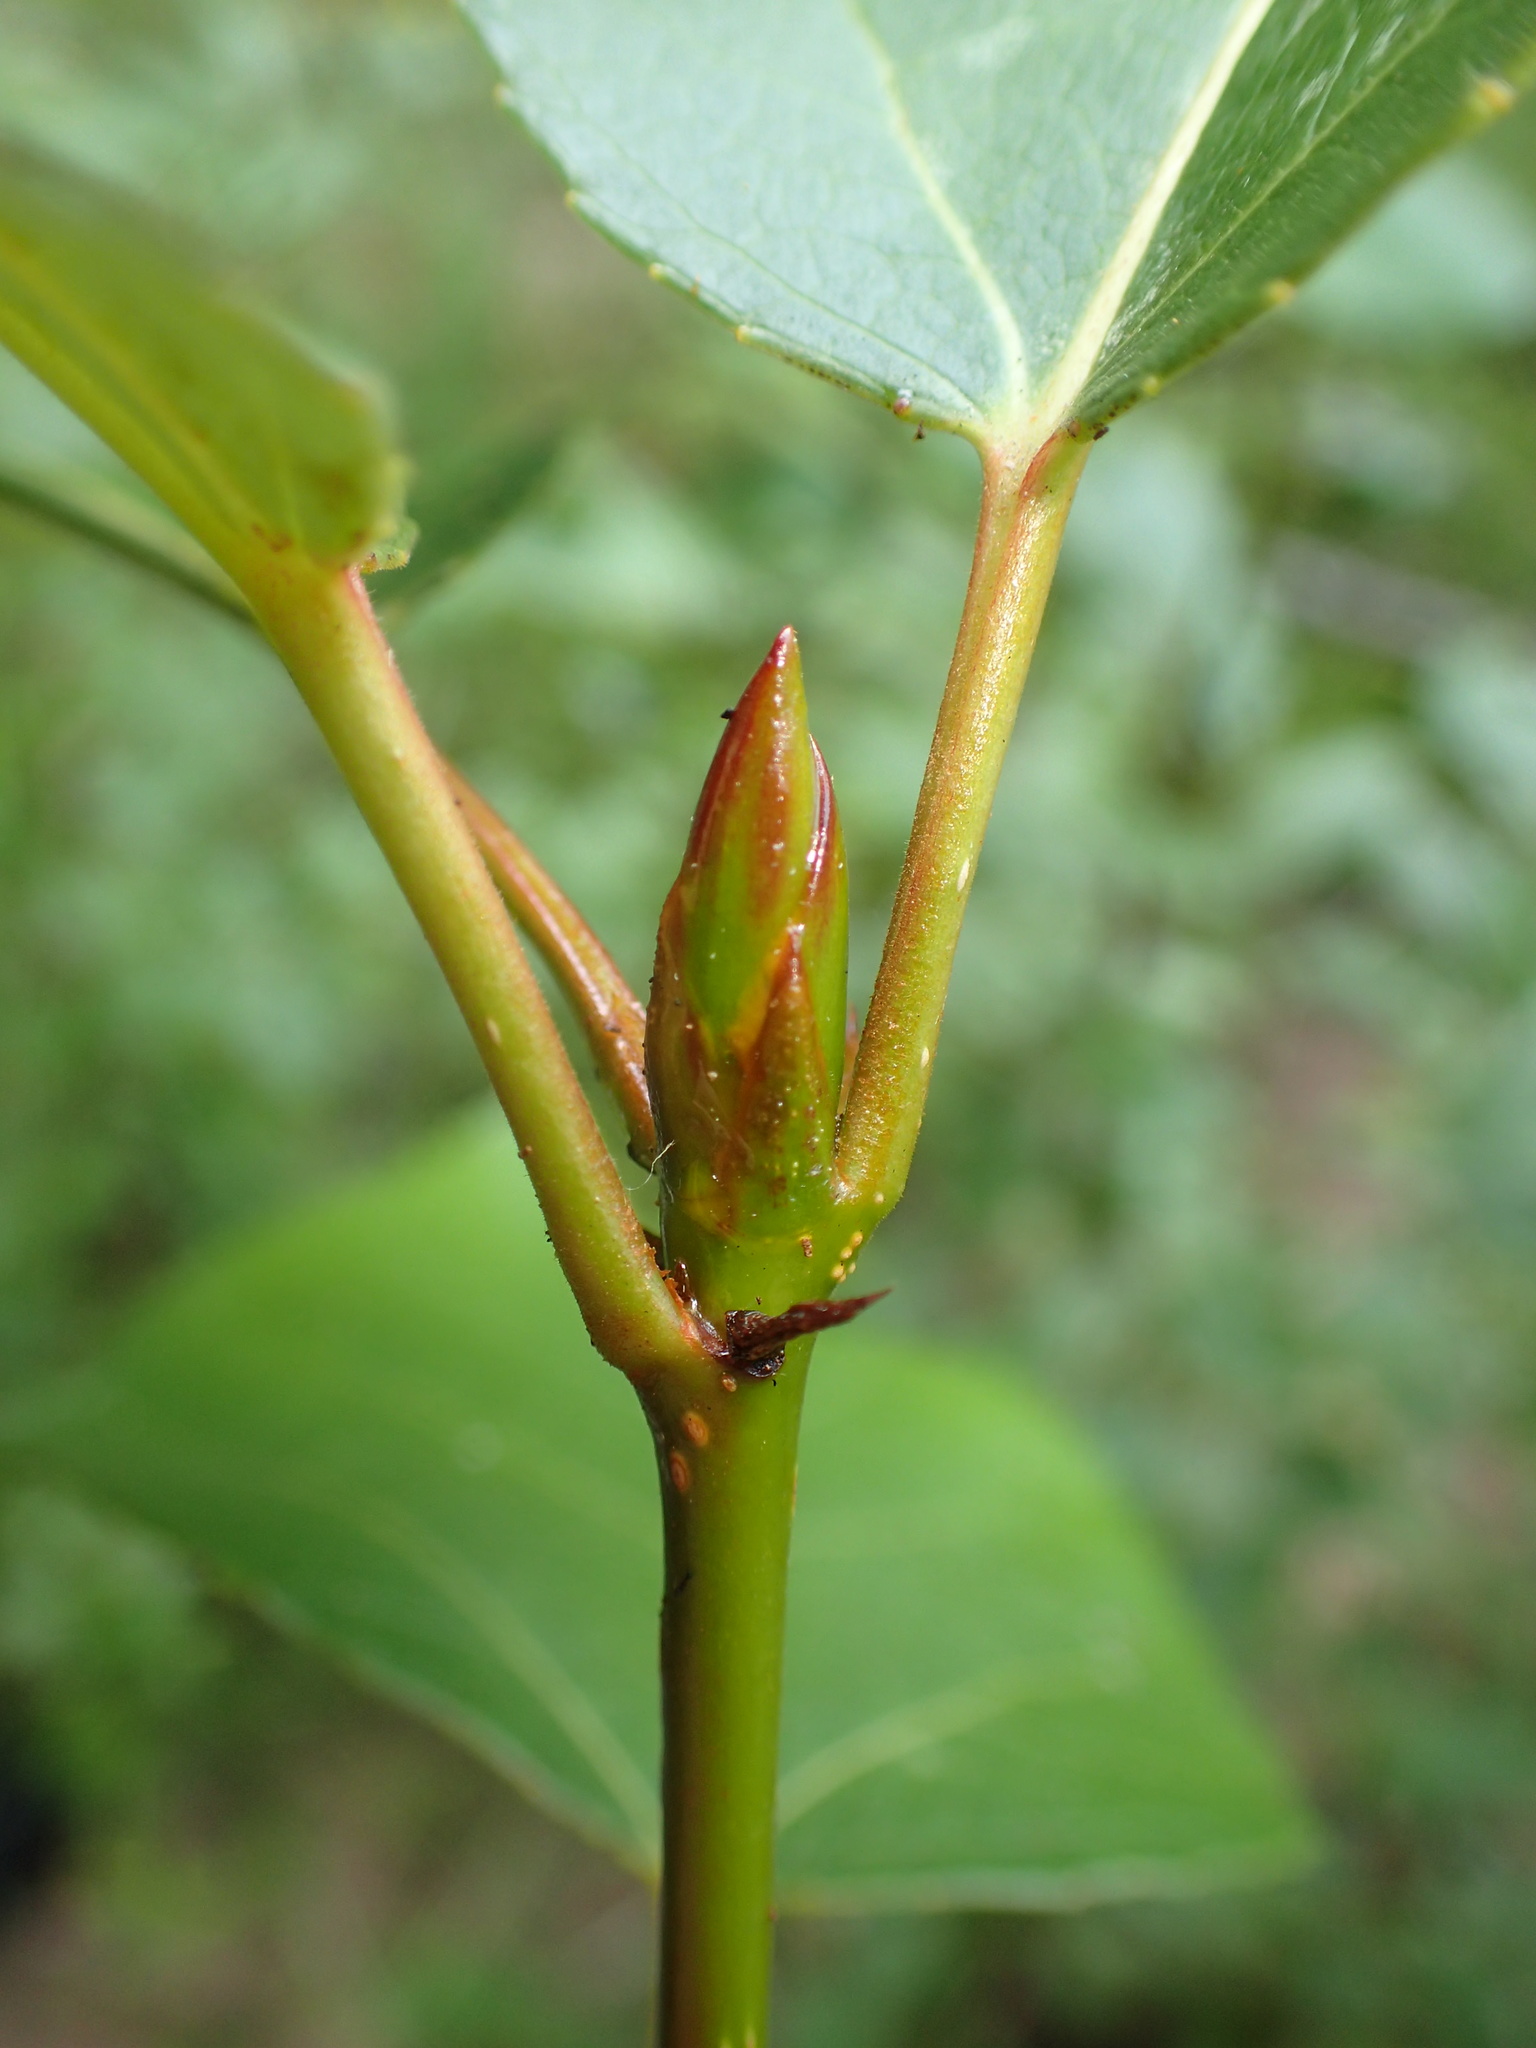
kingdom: Plantae
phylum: Tracheophyta
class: Magnoliopsida
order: Malpighiales
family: Salicaceae
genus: Populus
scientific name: Populus balsamifera
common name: Balsam poplar
